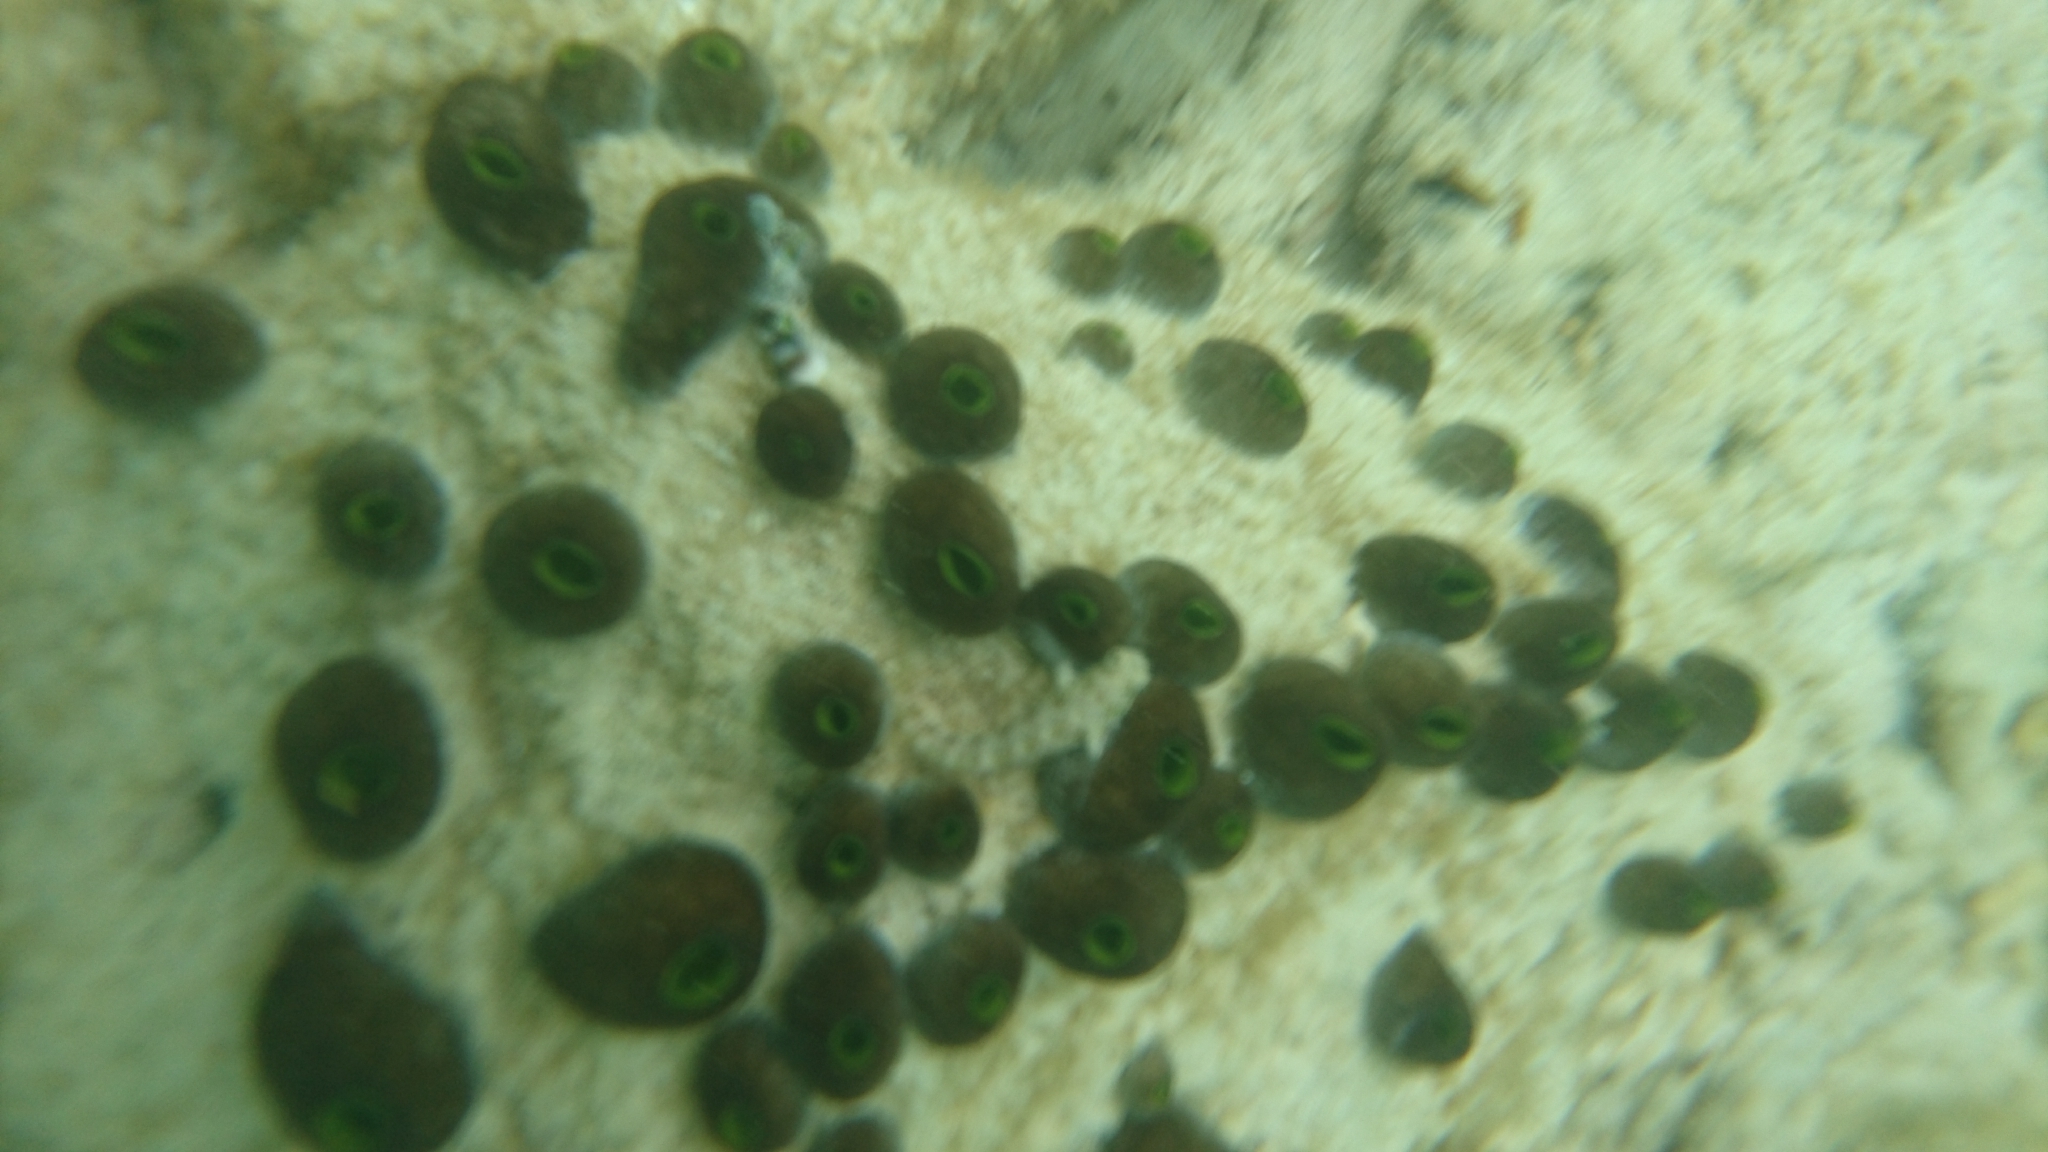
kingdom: Animalia
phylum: Chordata
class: Ascidiacea
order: Aplousobranchia
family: Didemnidae
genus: Didemnum
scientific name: Didemnum molle
